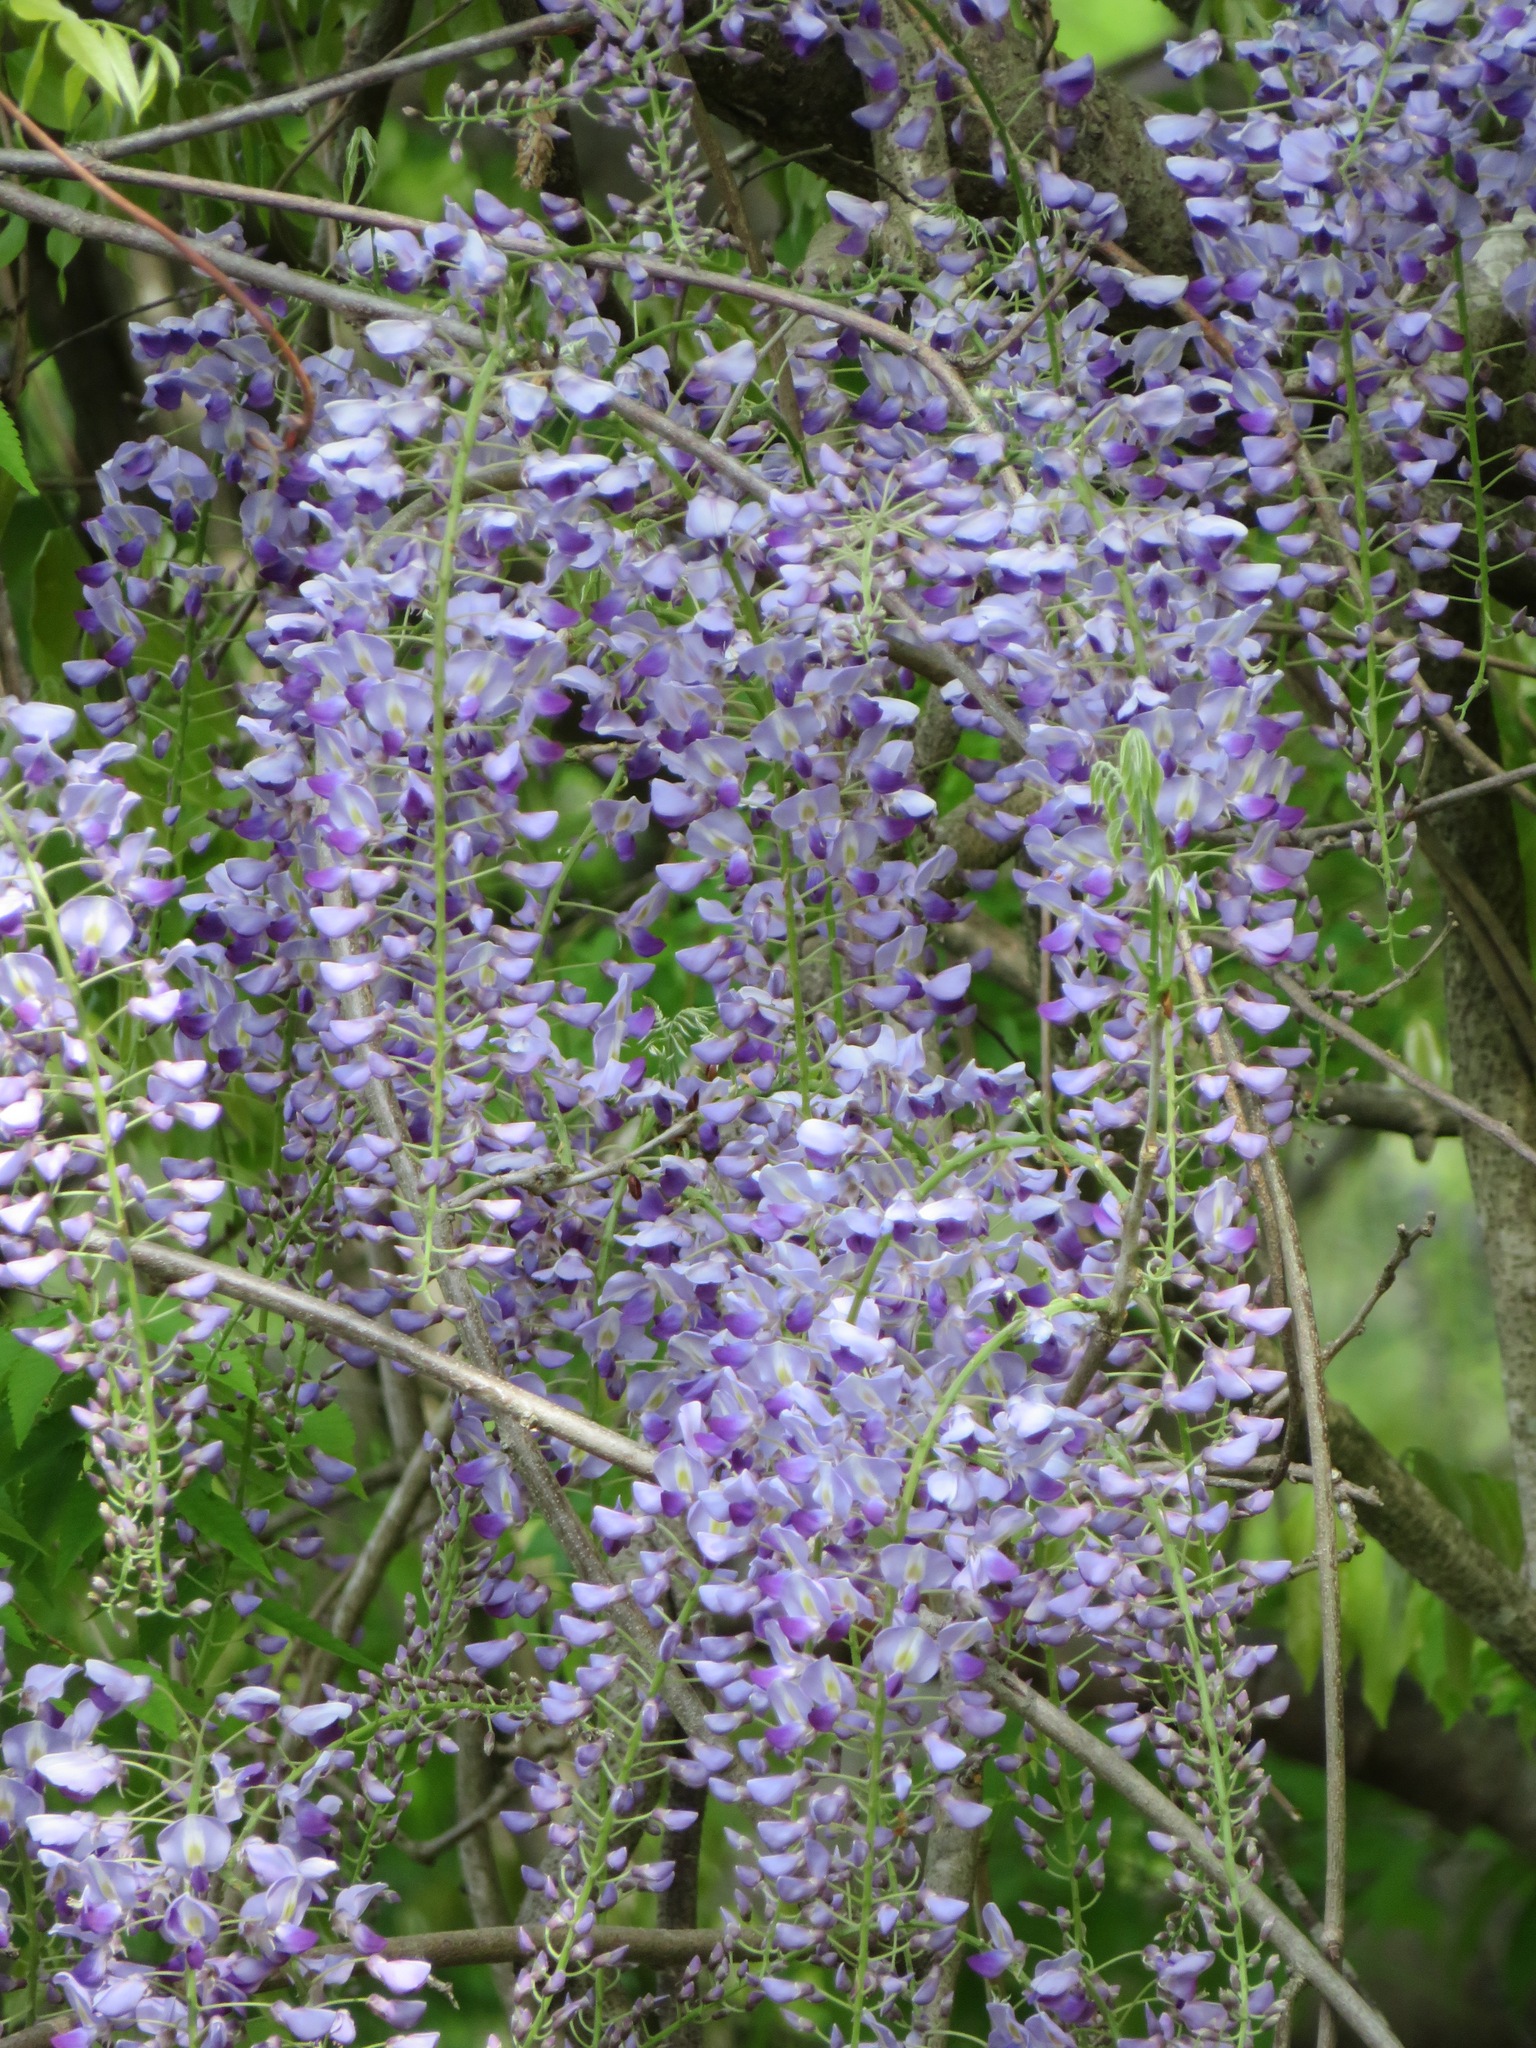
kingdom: Plantae
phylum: Tracheophyta
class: Magnoliopsida
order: Fabales
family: Fabaceae
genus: Wisteria
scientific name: Wisteria floribunda
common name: Japanese wisteria
